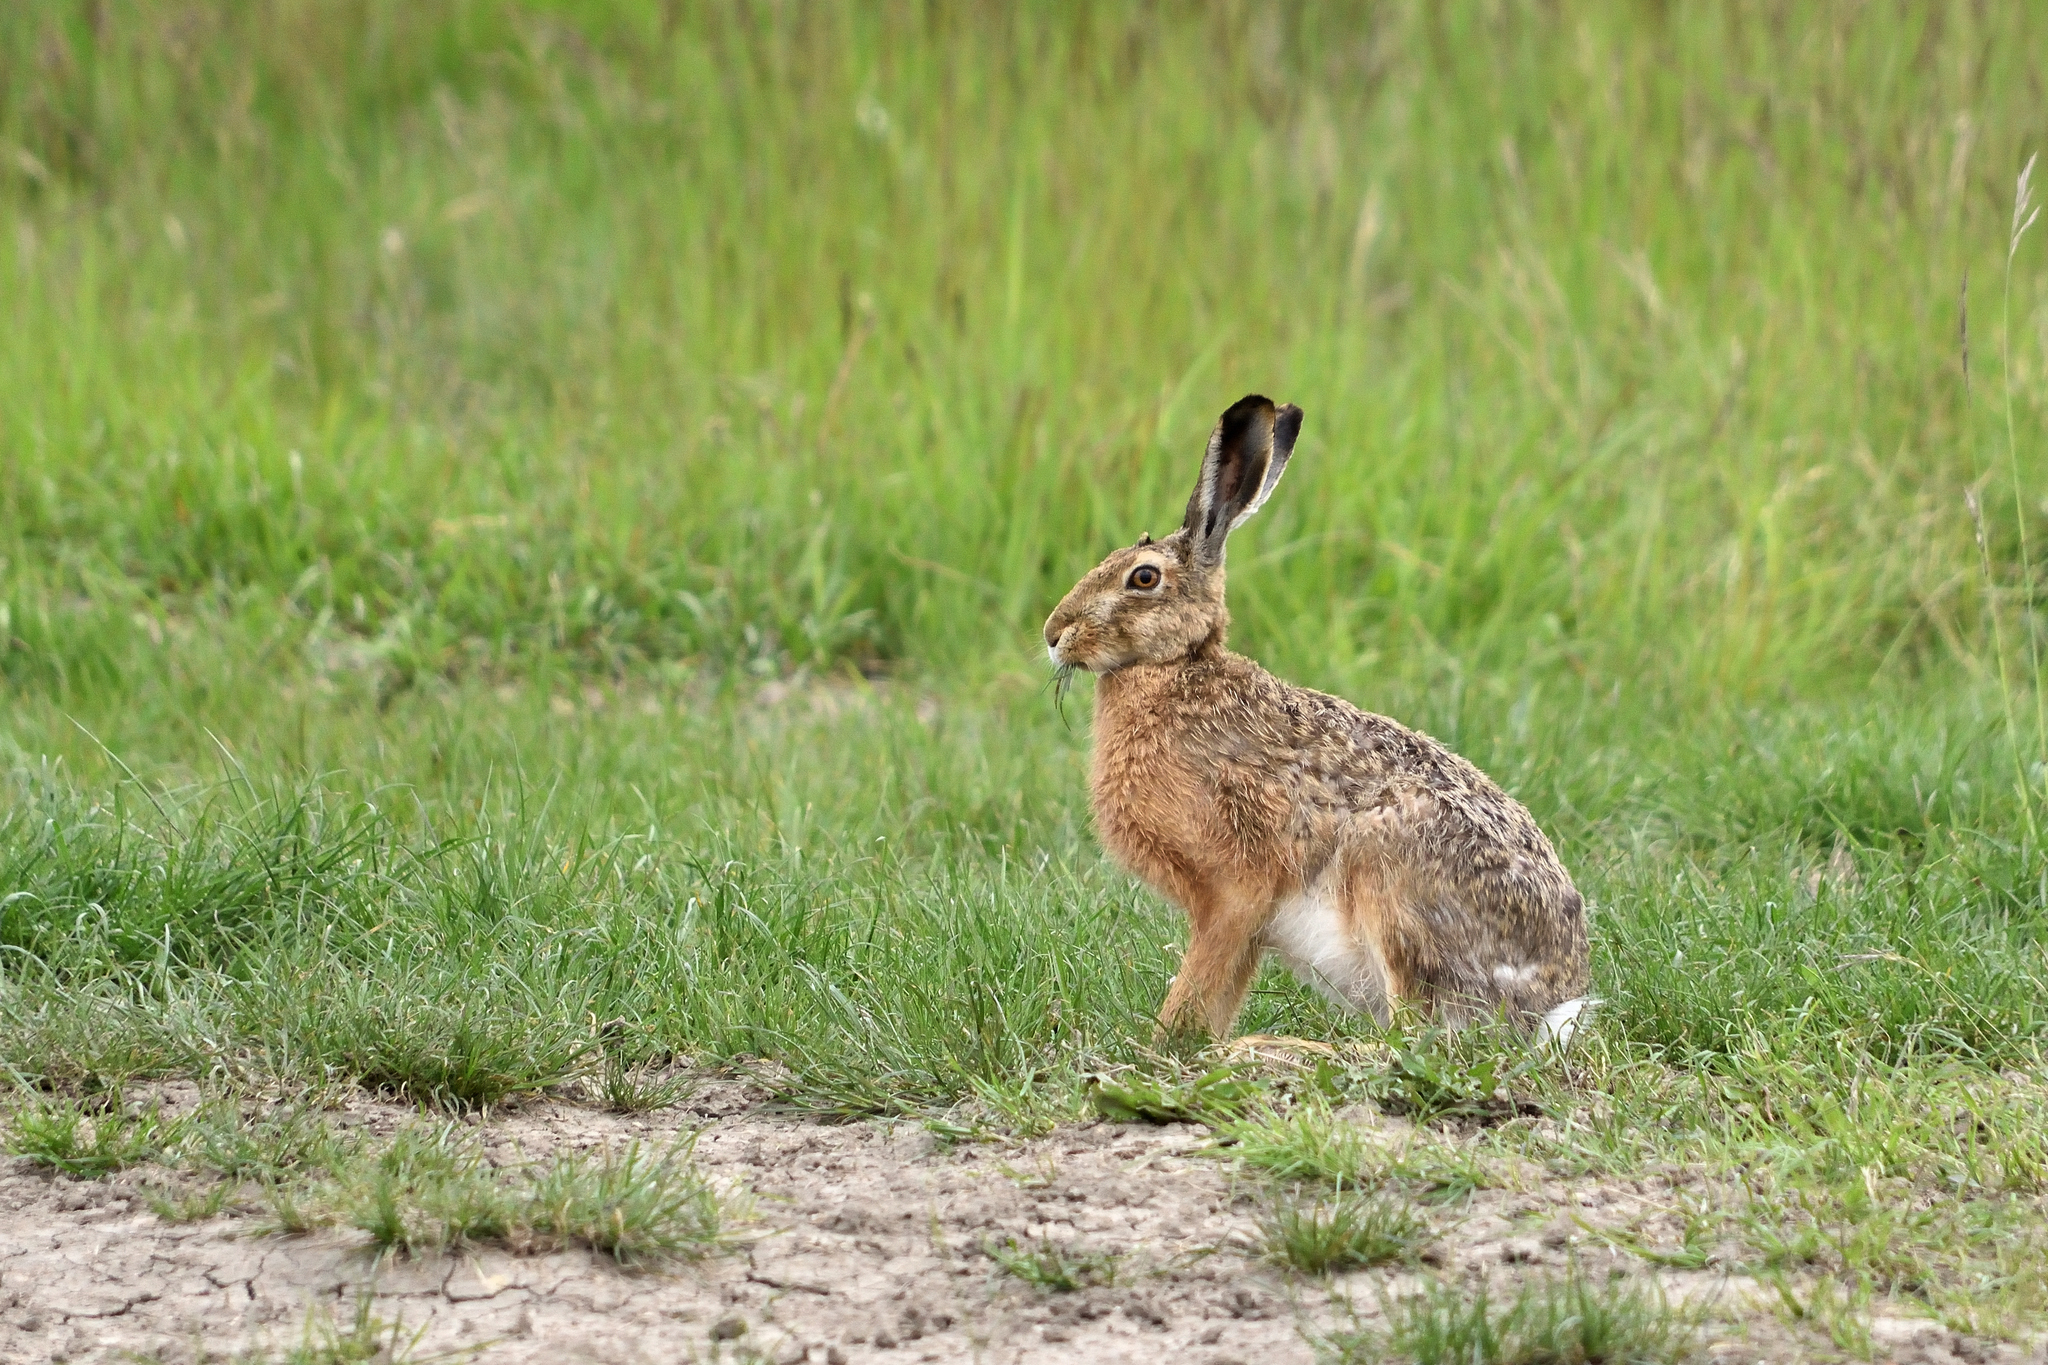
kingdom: Animalia
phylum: Chordata
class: Mammalia
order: Lagomorpha
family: Leporidae
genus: Lepus
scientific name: Lepus europaeus
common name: European hare
